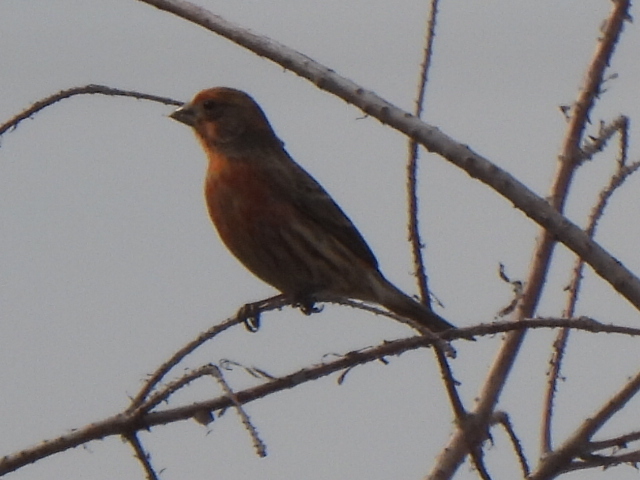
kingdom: Animalia
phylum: Chordata
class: Aves
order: Passeriformes
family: Fringillidae
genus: Haemorhous
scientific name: Haemorhous mexicanus
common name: House finch
